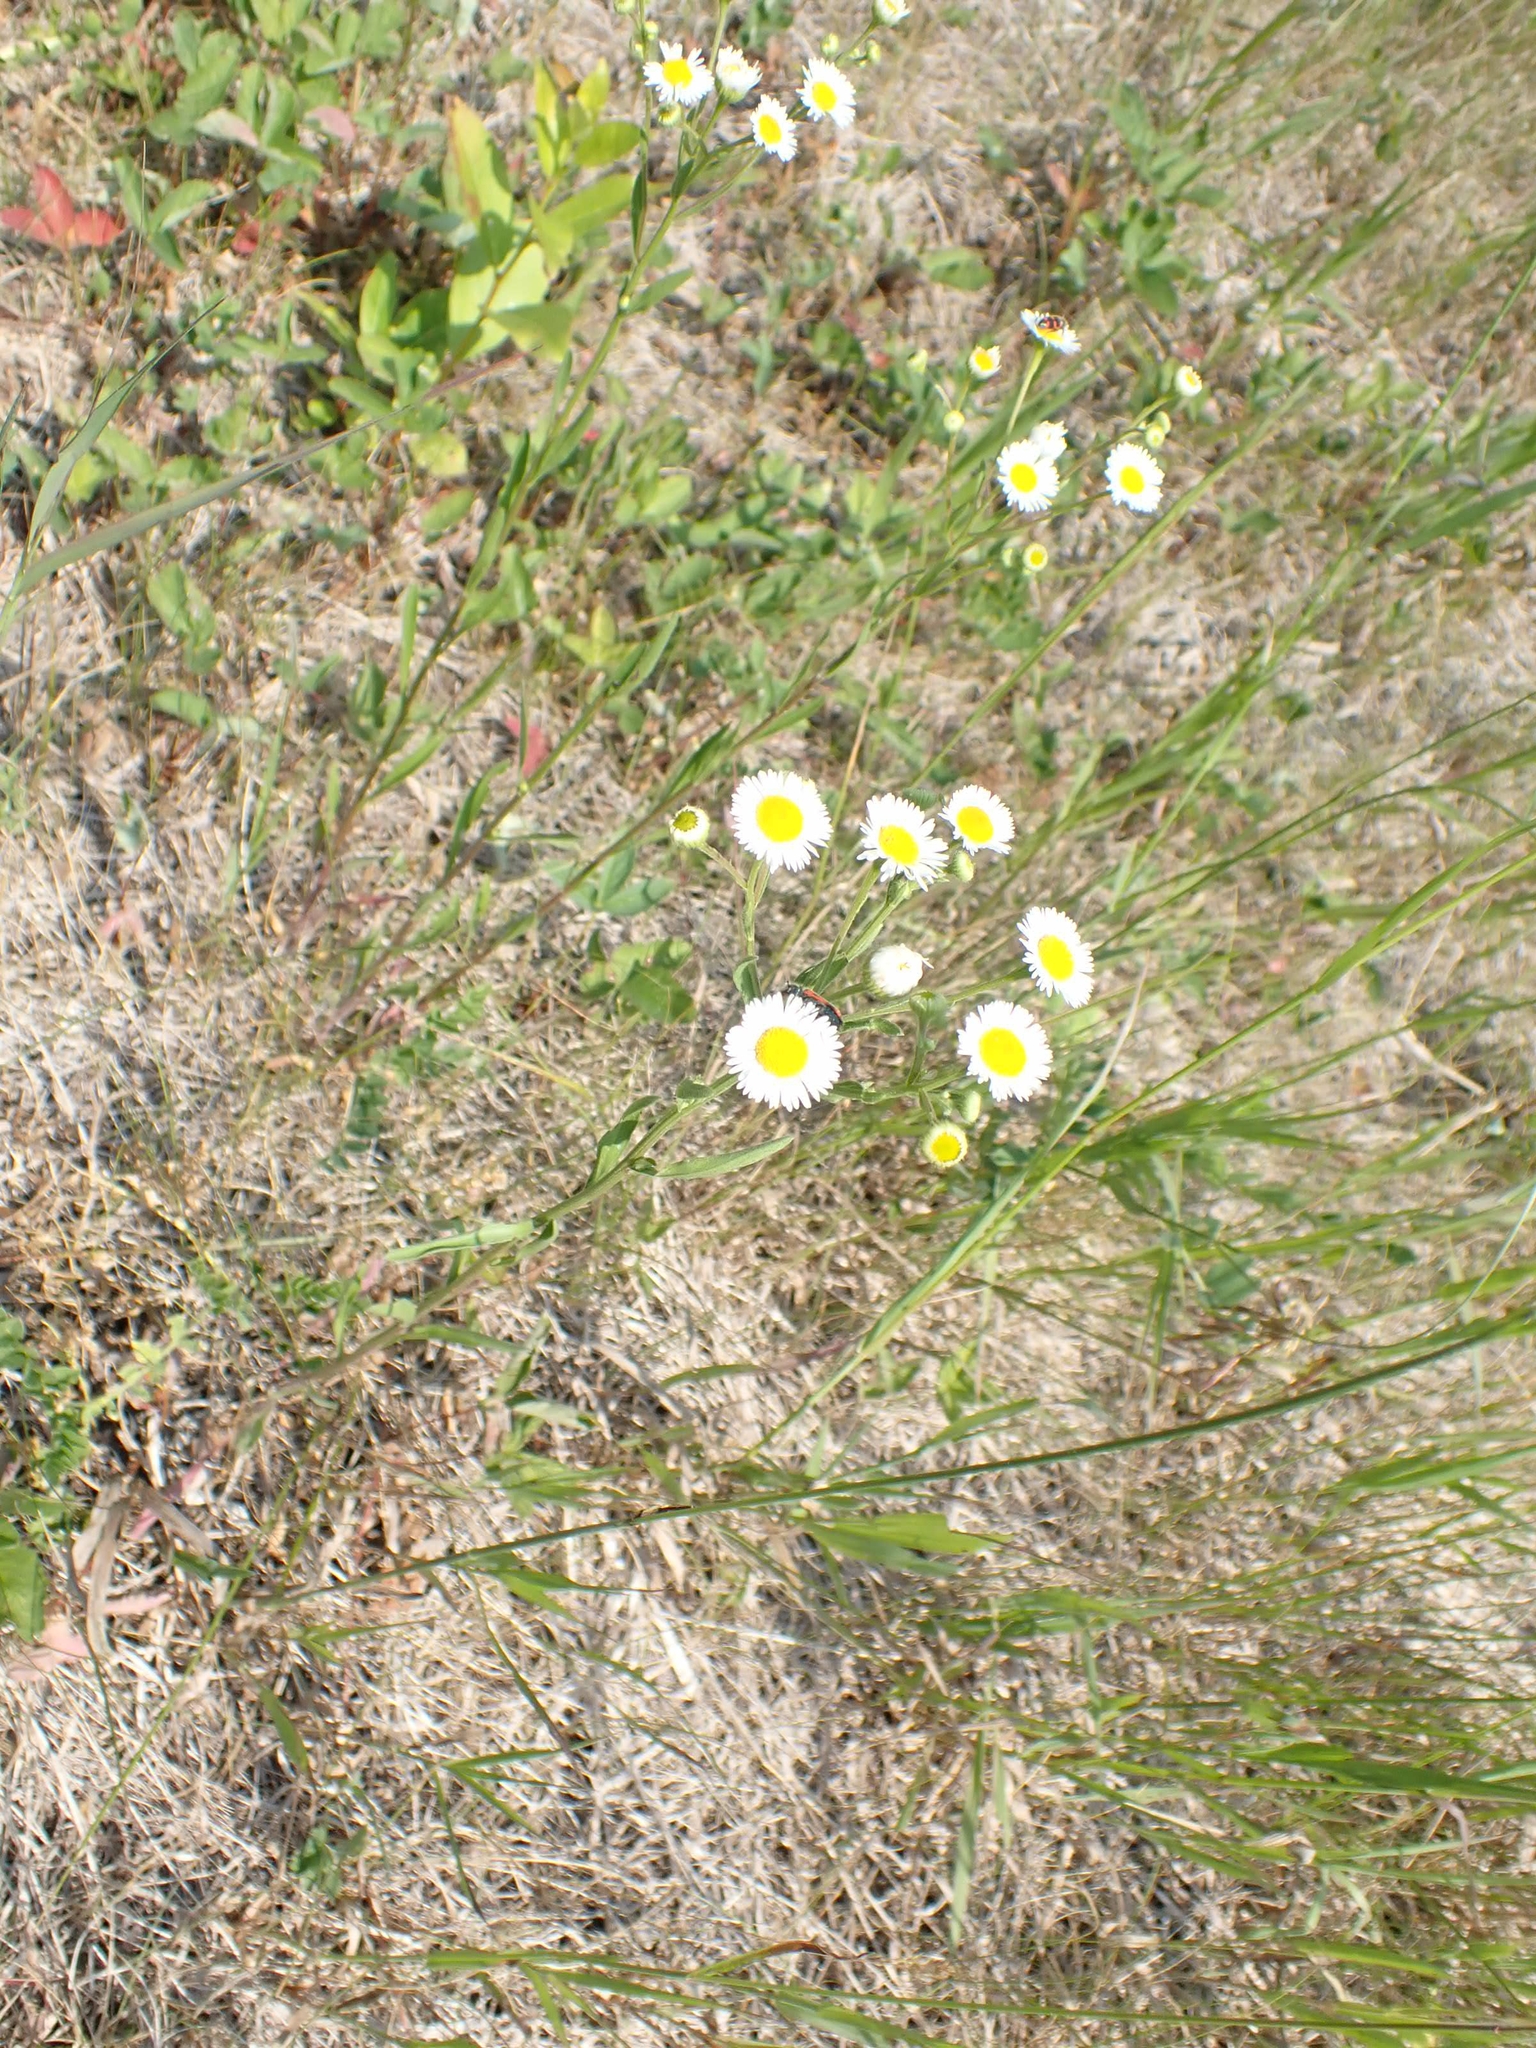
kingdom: Plantae
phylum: Tracheophyta
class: Magnoliopsida
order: Asterales
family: Asteraceae
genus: Erigeron
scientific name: Erigeron strigosus
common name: Common eastern fleabane
